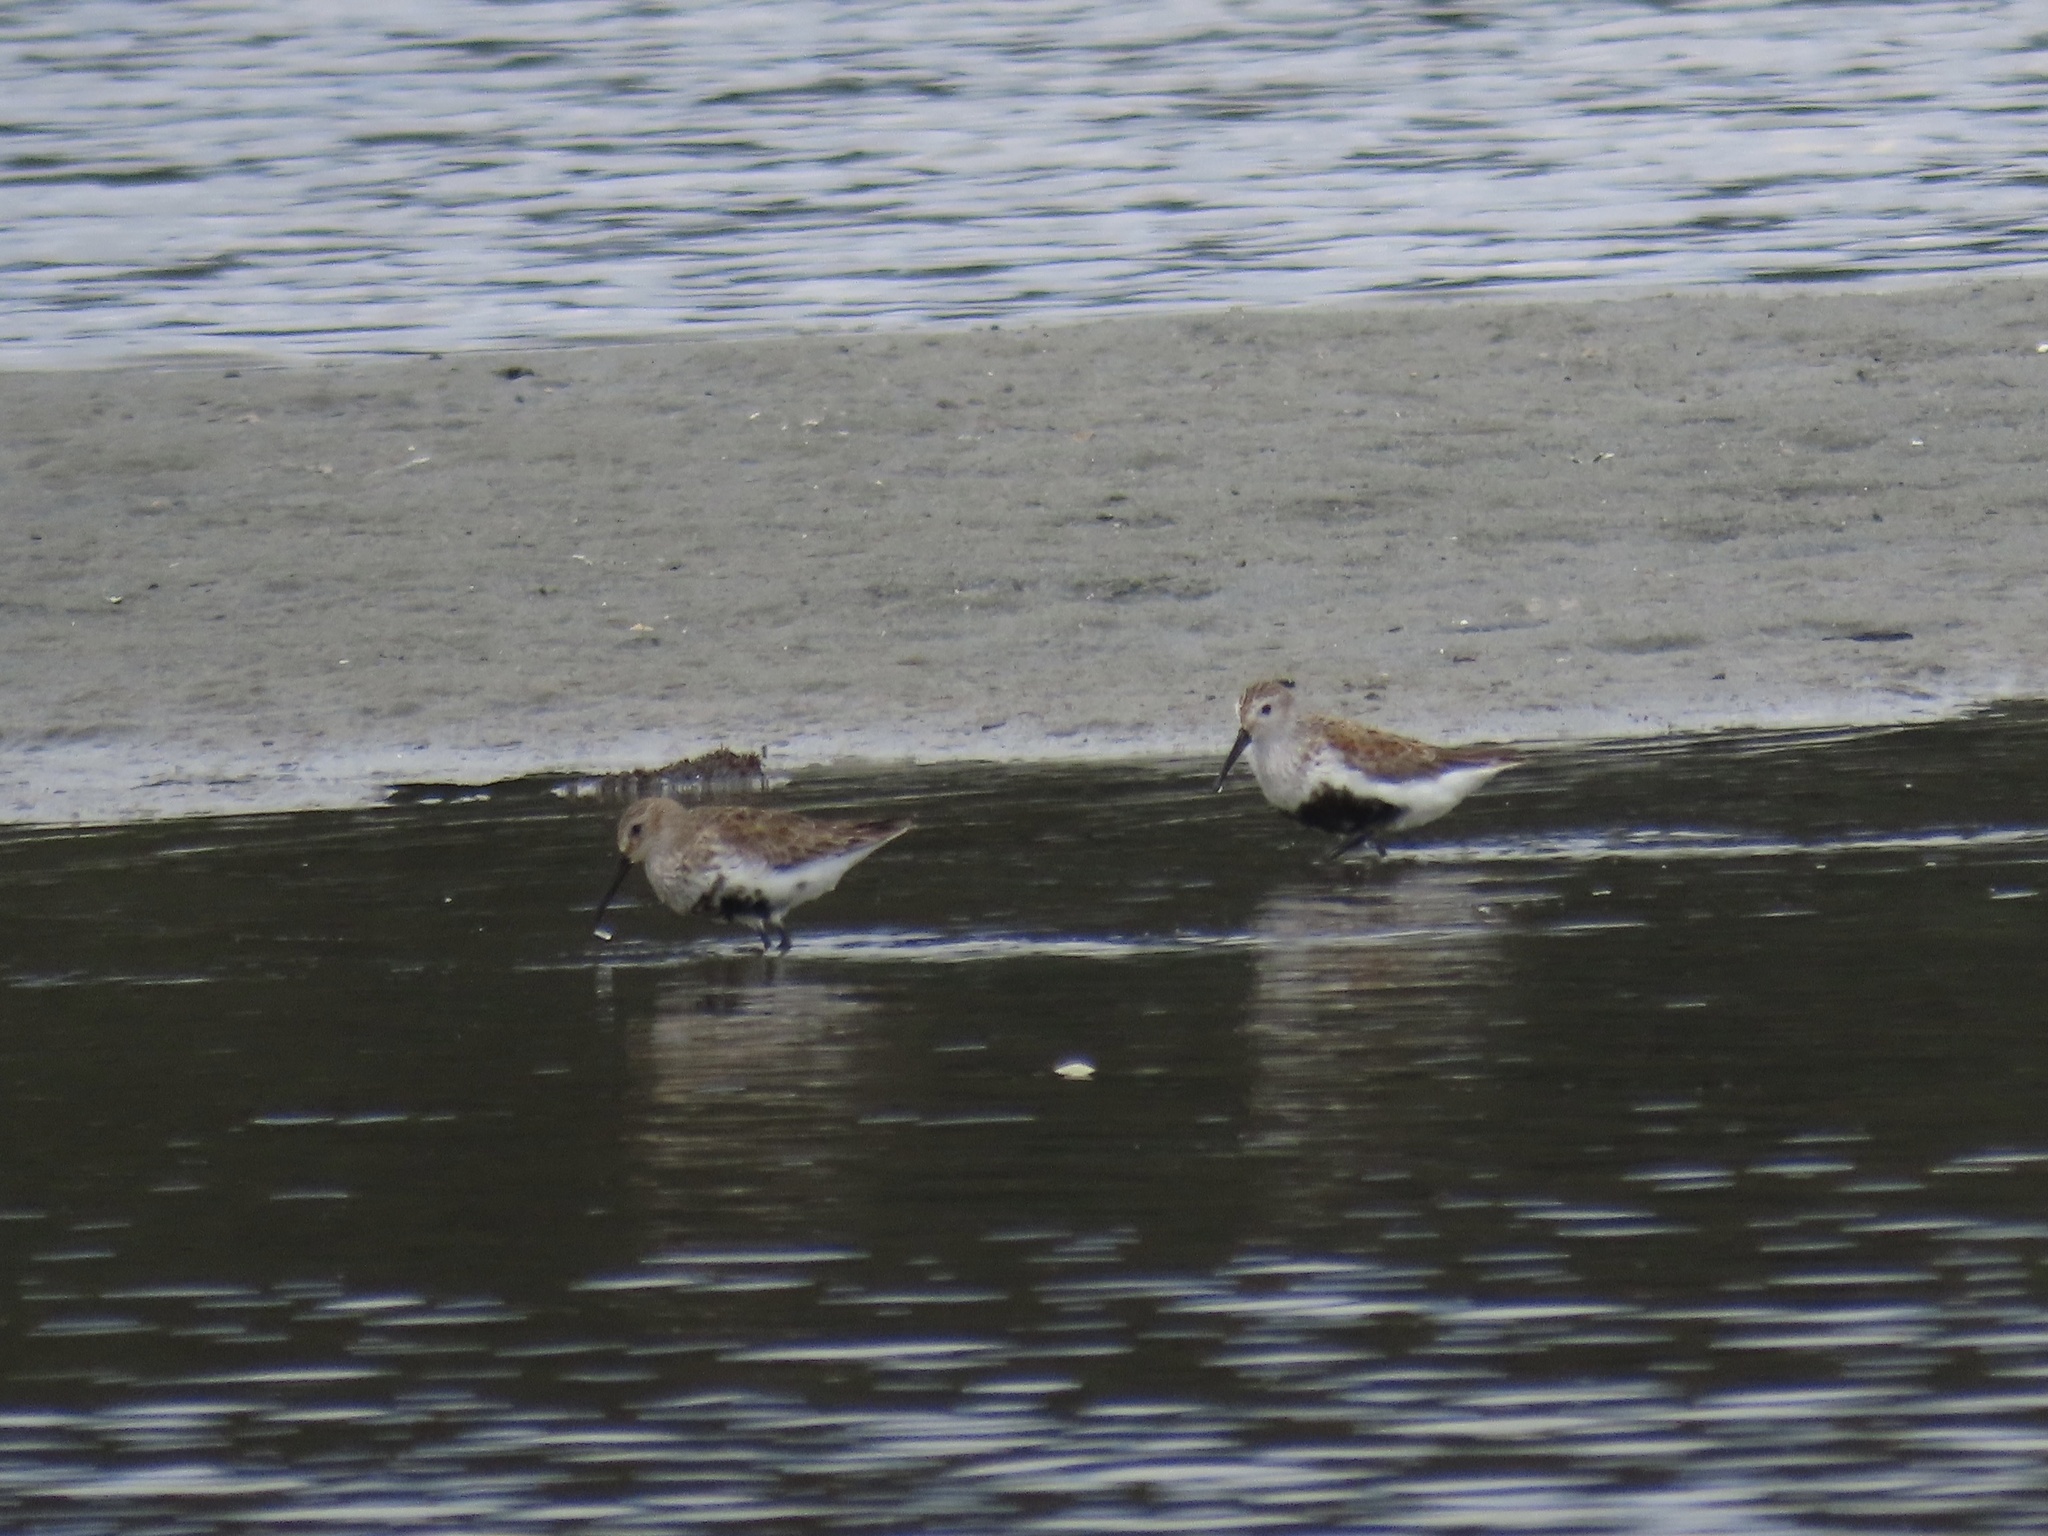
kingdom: Animalia
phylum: Chordata
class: Aves
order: Charadriiformes
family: Scolopacidae
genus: Calidris
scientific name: Calidris alpina
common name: Dunlin
